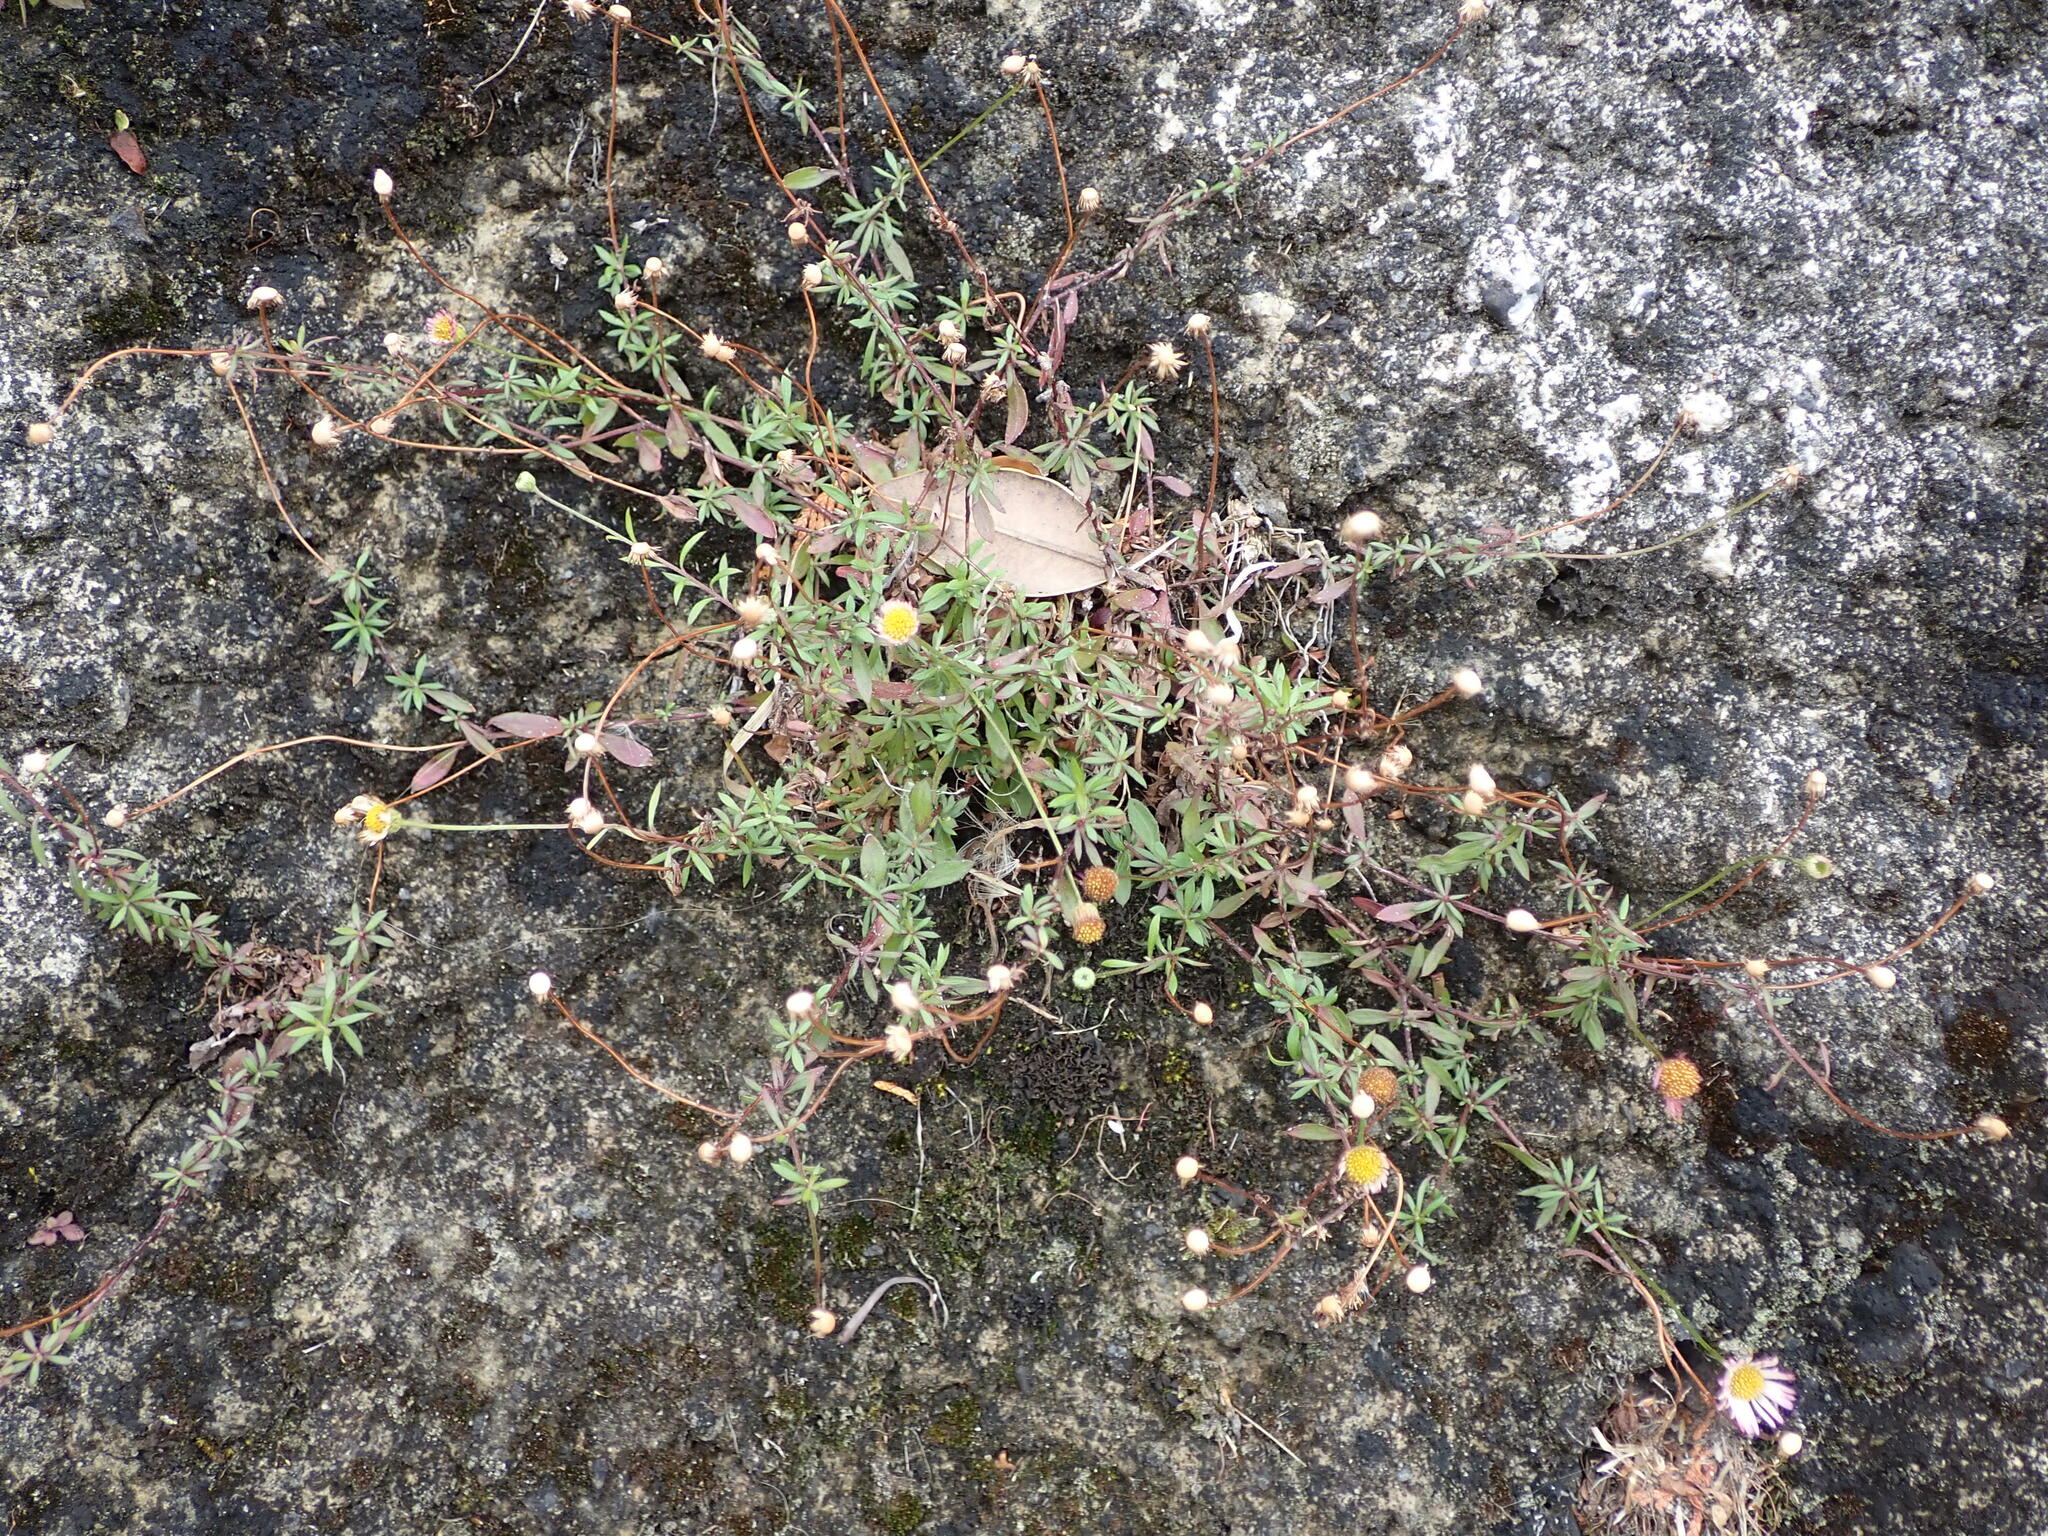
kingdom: Plantae
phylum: Tracheophyta
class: Magnoliopsida
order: Asterales
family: Asteraceae
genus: Erigeron
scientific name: Erigeron karvinskianus
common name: Mexican fleabane
